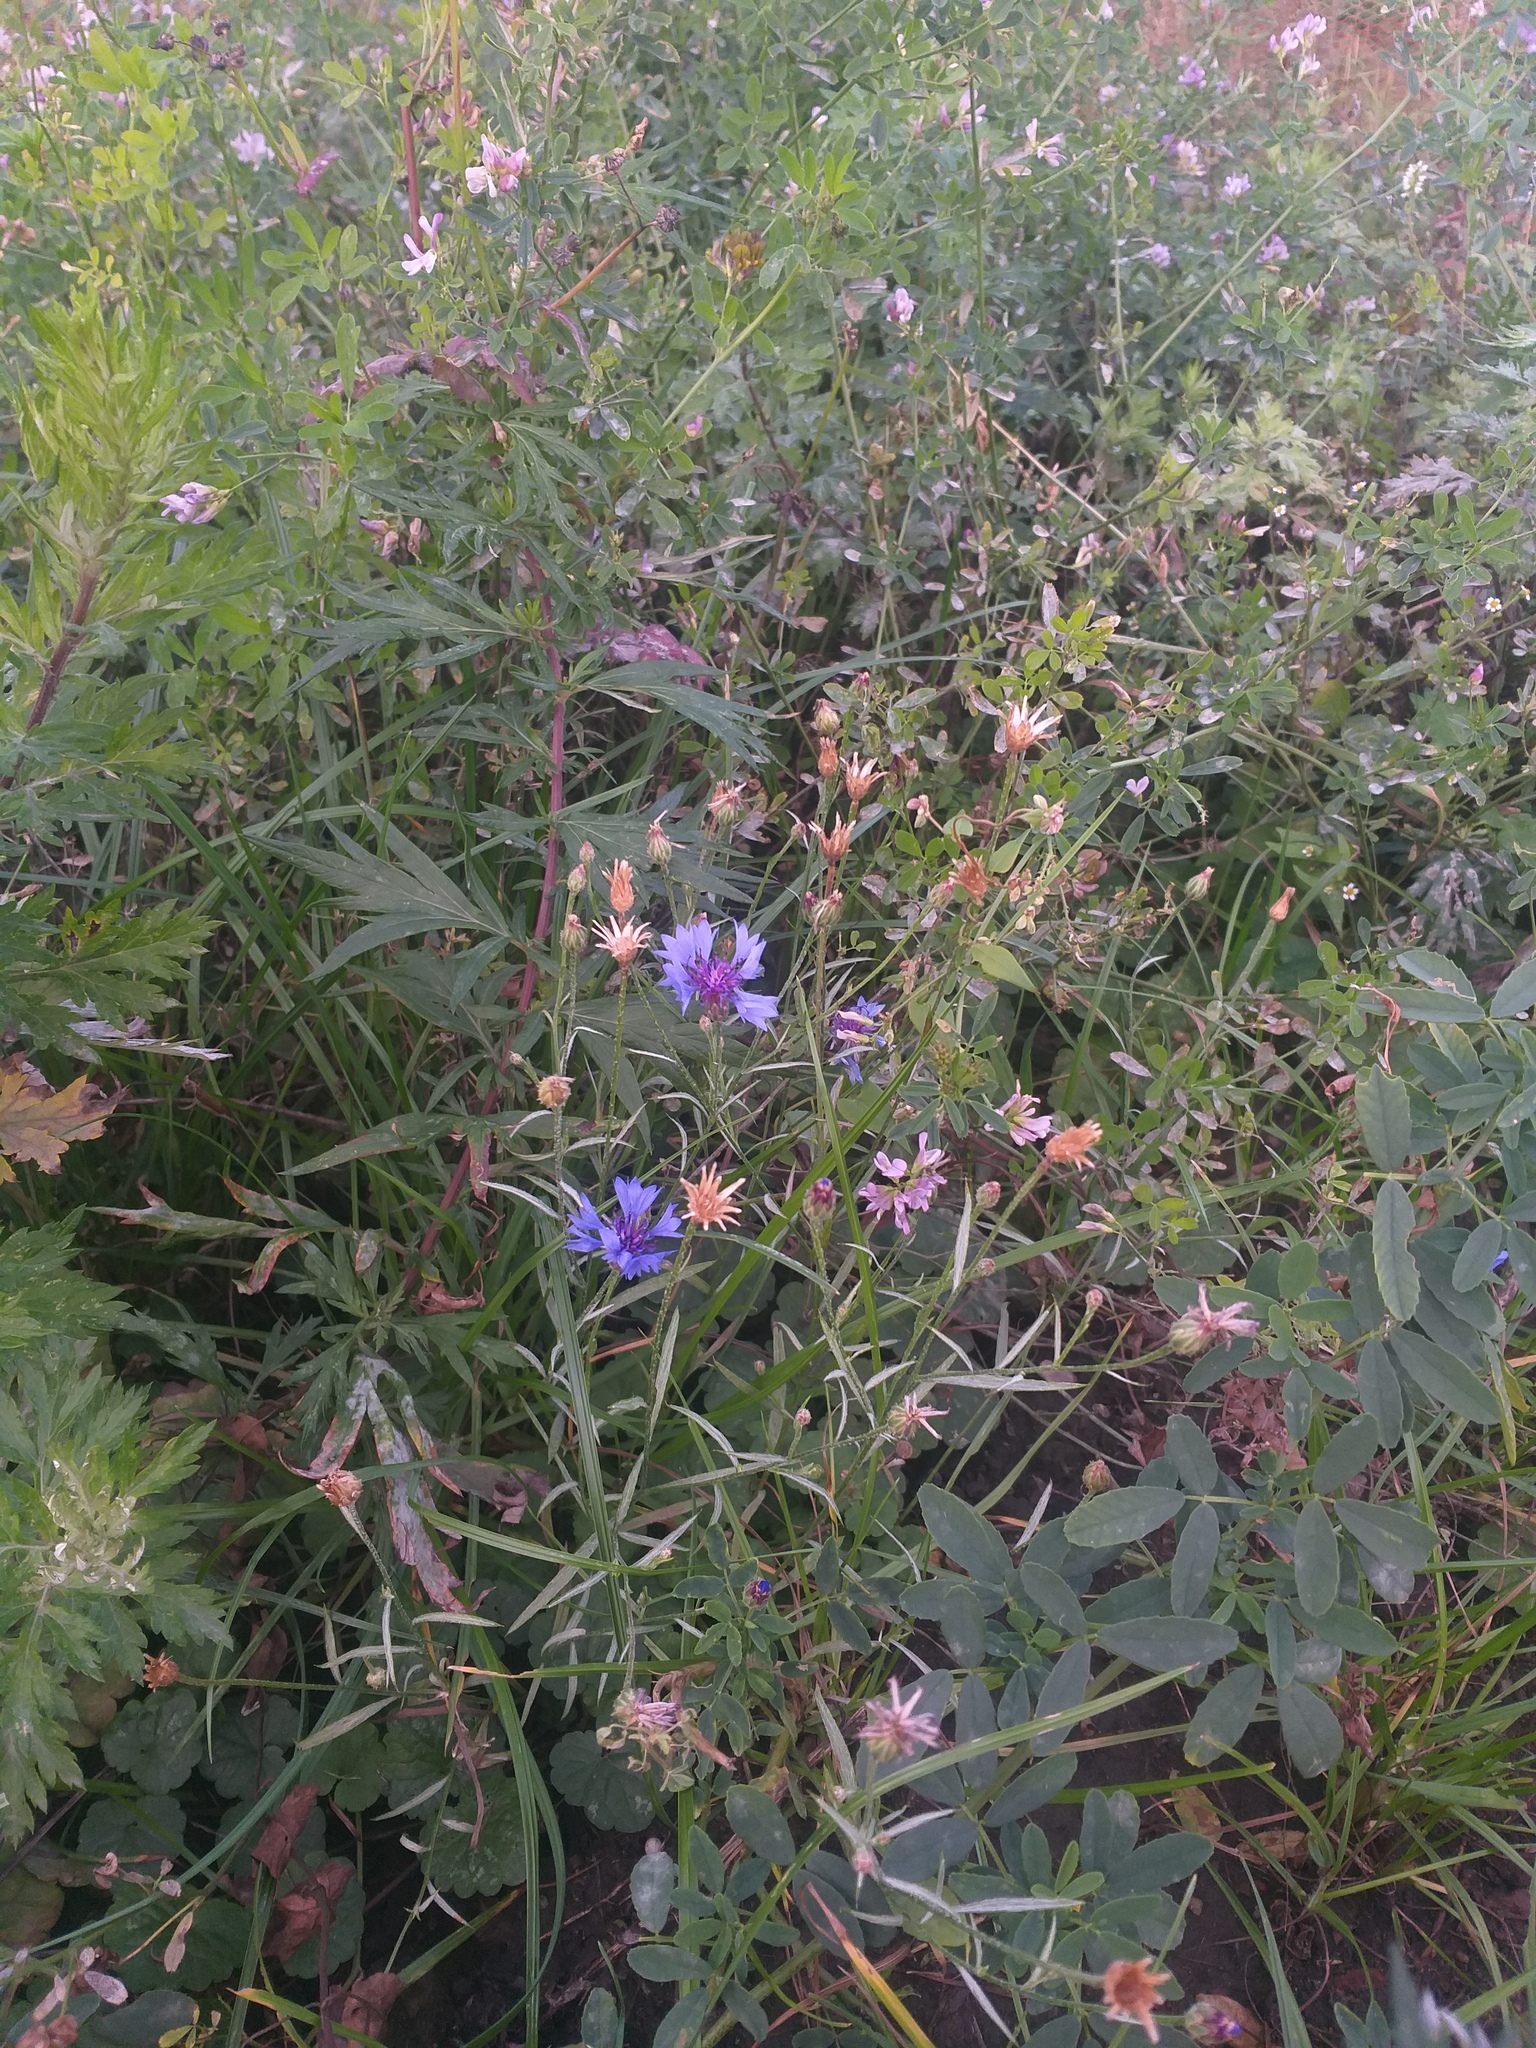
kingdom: Plantae
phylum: Tracheophyta
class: Magnoliopsida
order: Asterales
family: Asteraceae
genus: Centaurea
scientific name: Centaurea cyanus
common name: Cornflower
